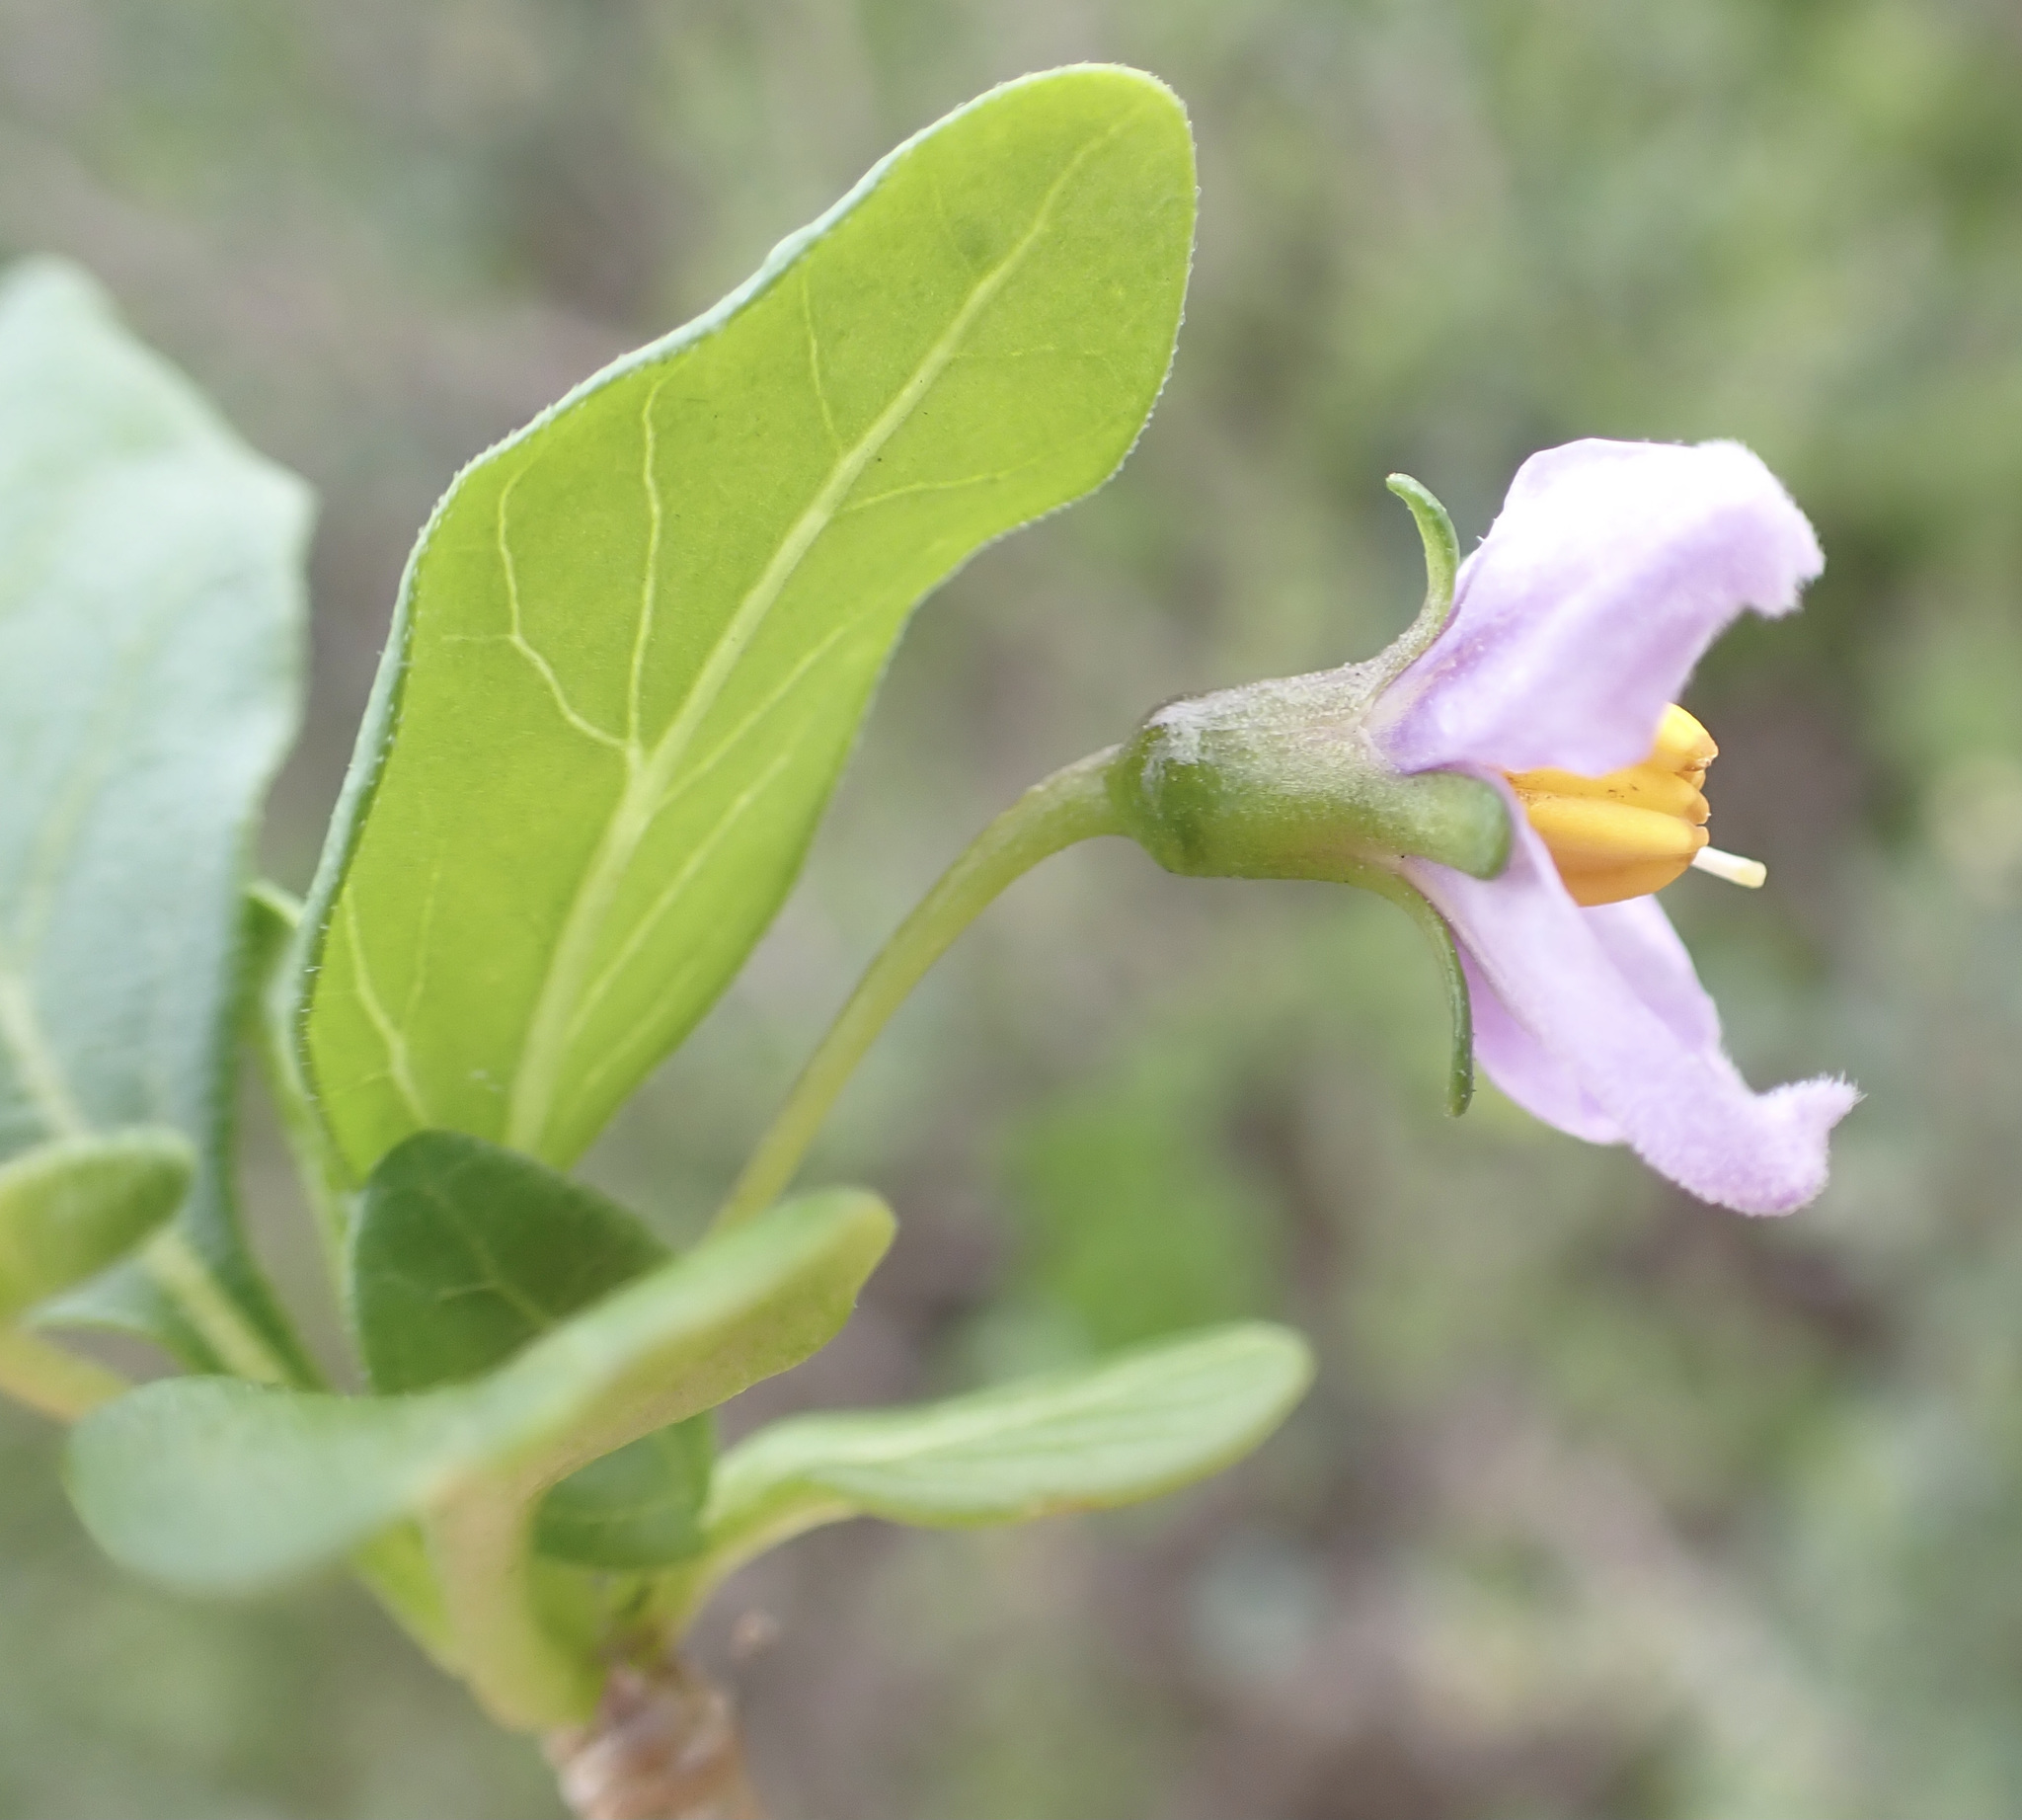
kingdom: Plantae
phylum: Tracheophyta
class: Magnoliopsida
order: Solanales
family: Solanaceae
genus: Solanum
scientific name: Solanum guineense
